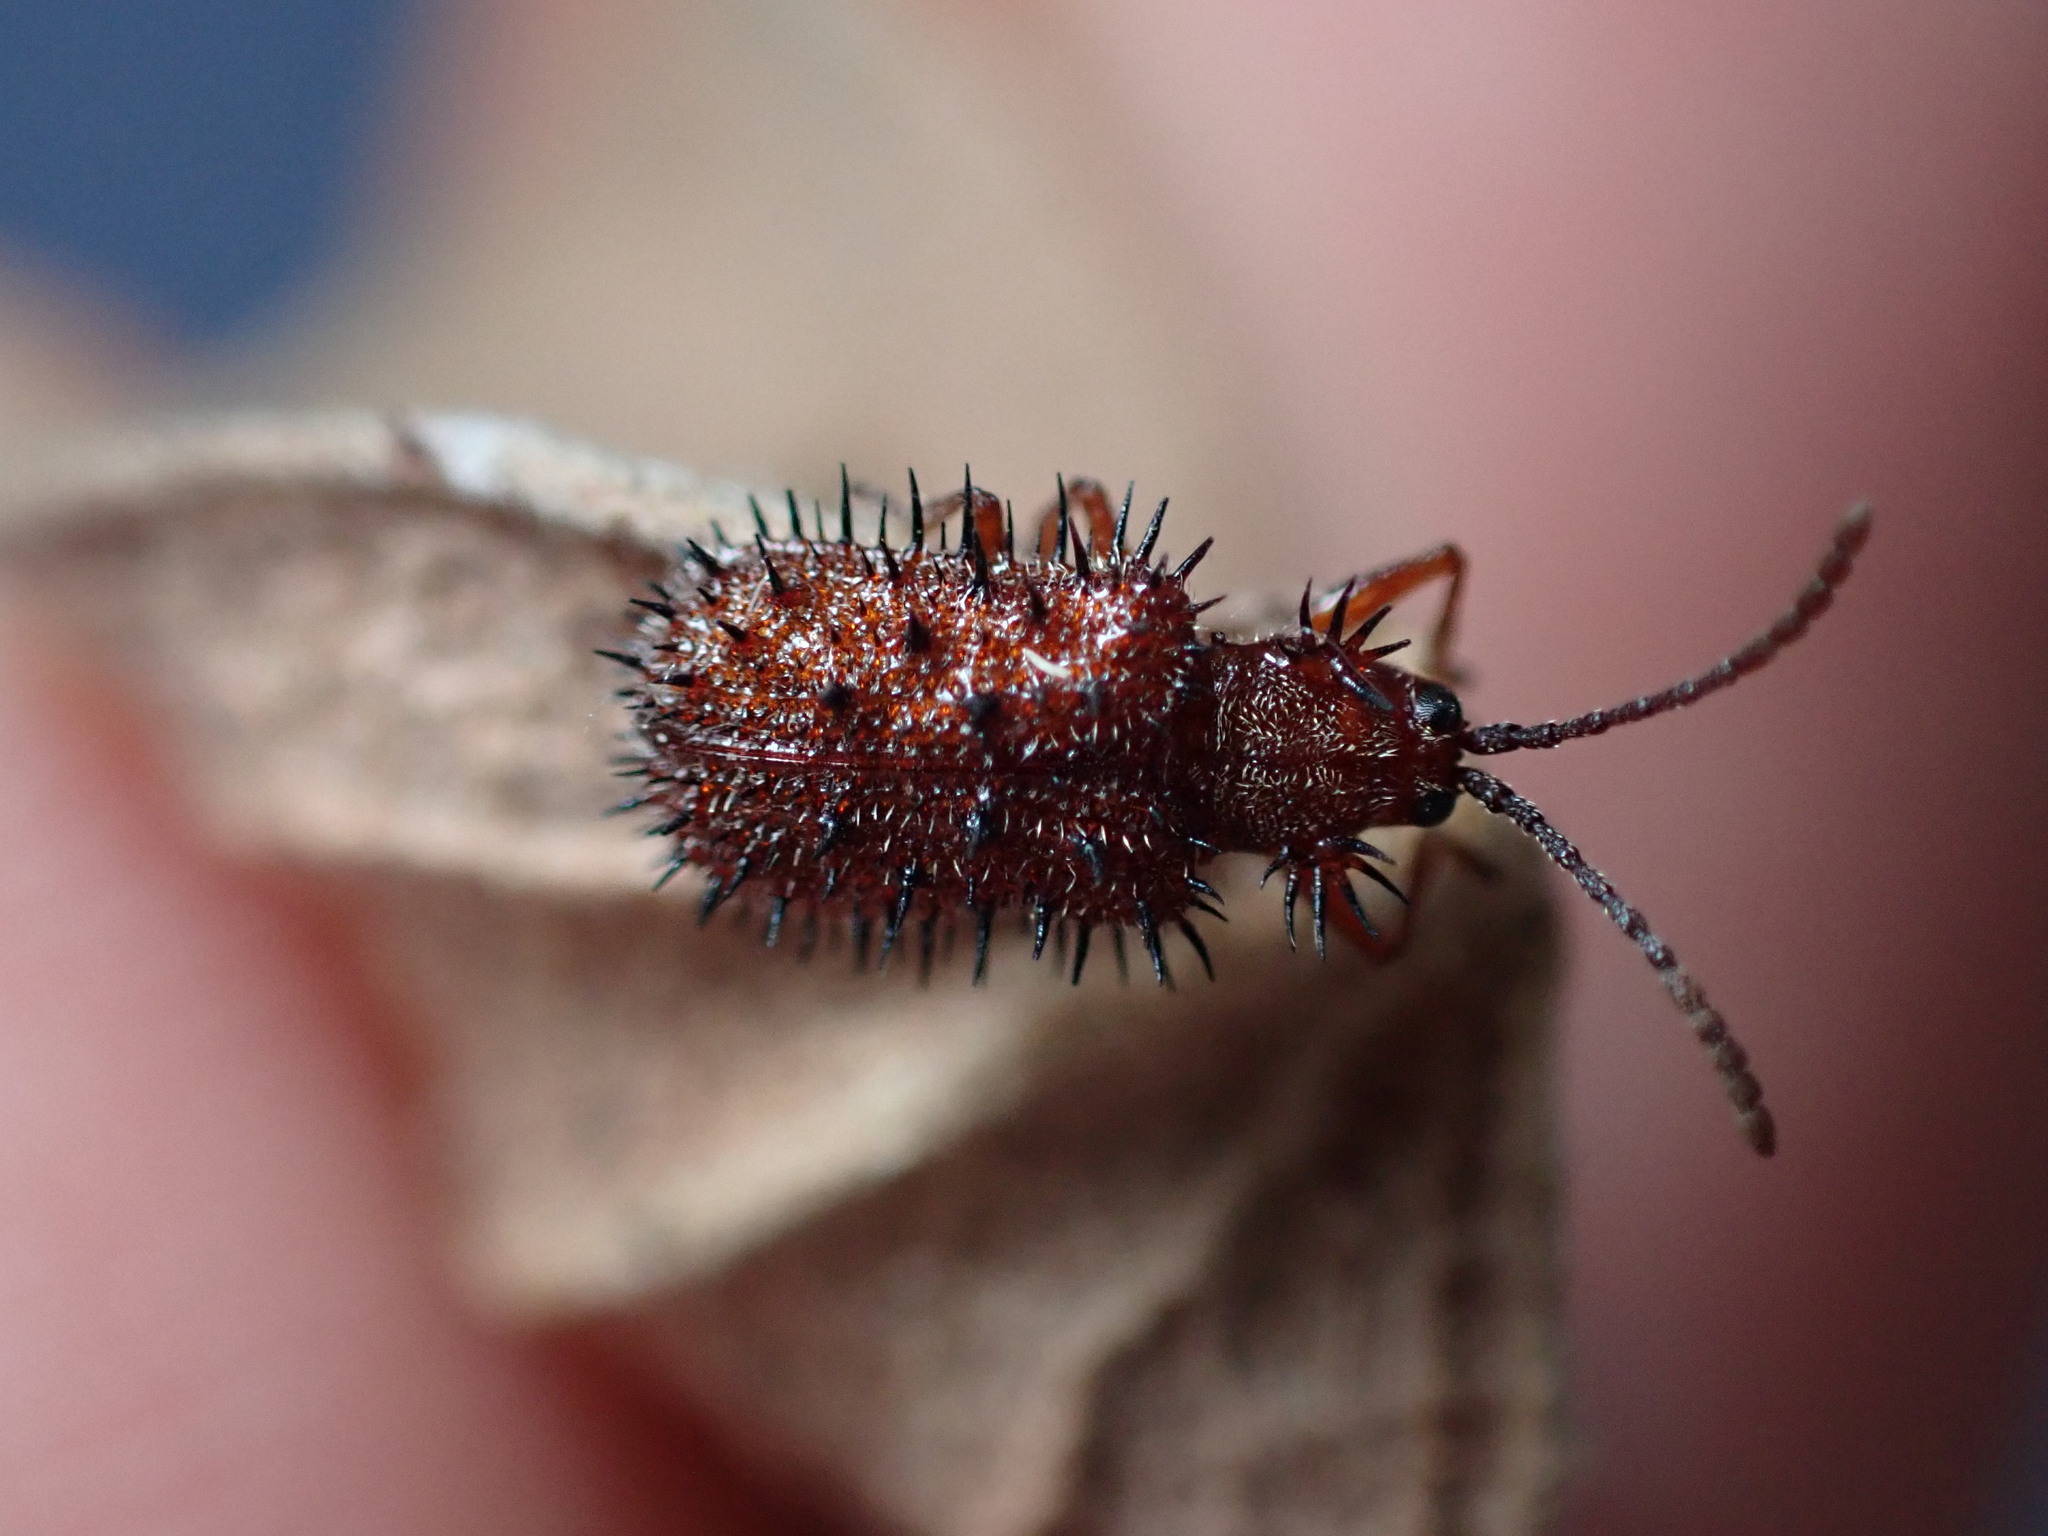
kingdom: Animalia
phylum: Arthropoda
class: Insecta
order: Coleoptera
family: Chrysomelidae
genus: Dicladispa
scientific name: Dicladispa testacea
